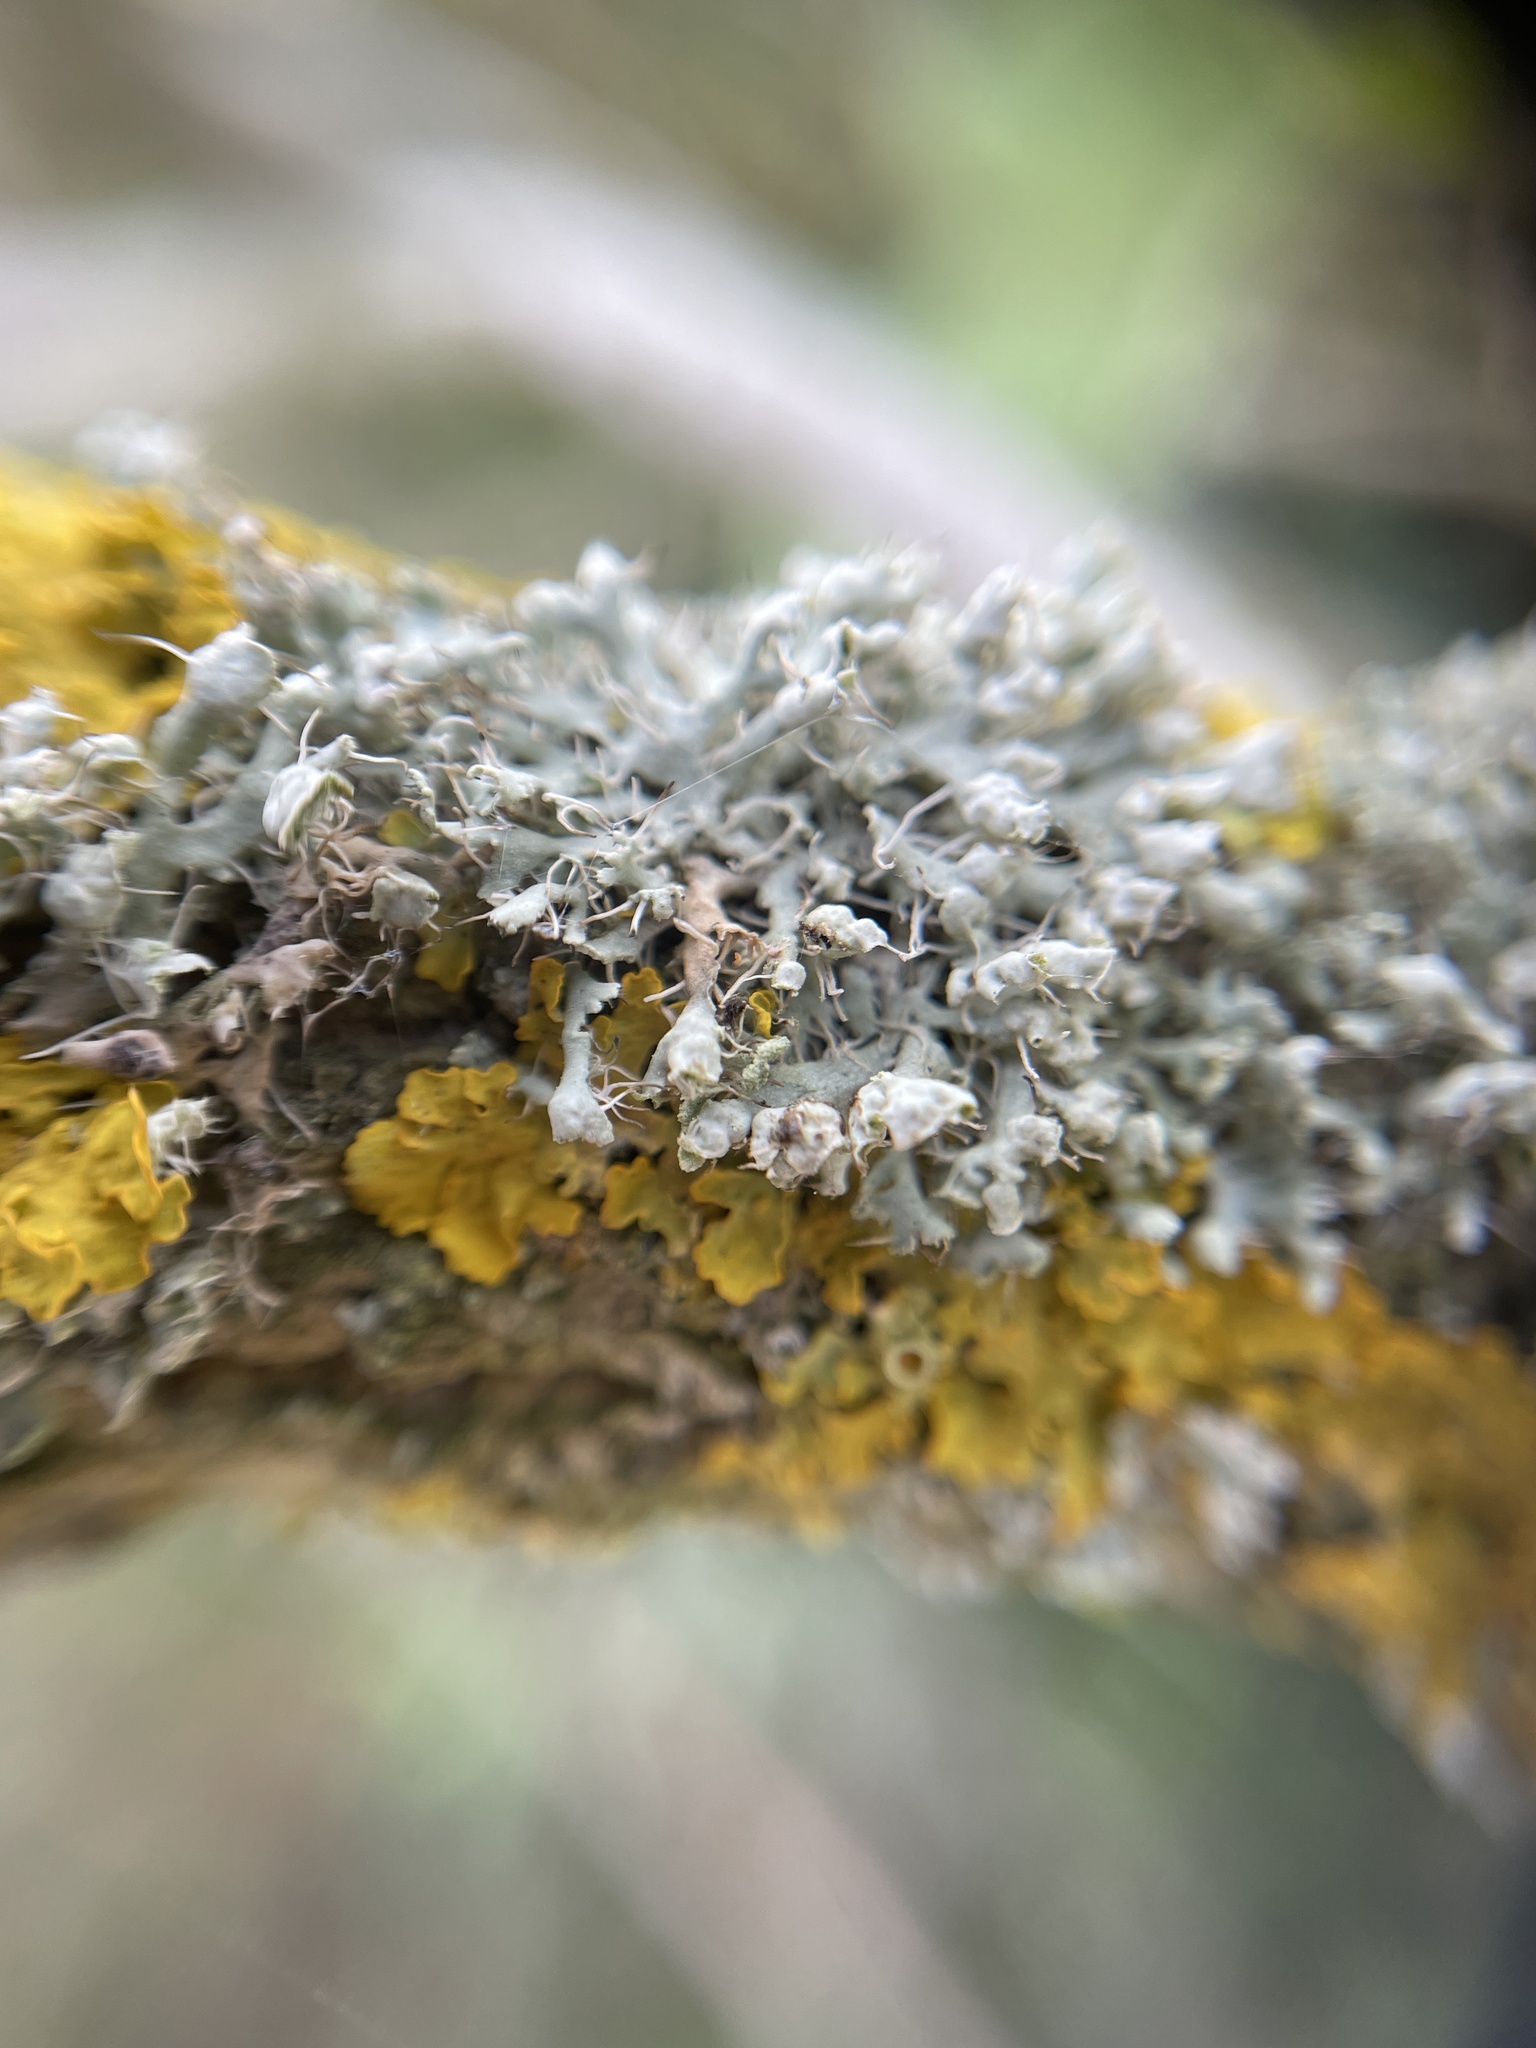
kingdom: Fungi
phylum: Ascomycota
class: Lecanoromycetes
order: Caliciales
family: Physciaceae
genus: Physcia
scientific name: Physcia adscendens
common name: Hooded rosette lichen
